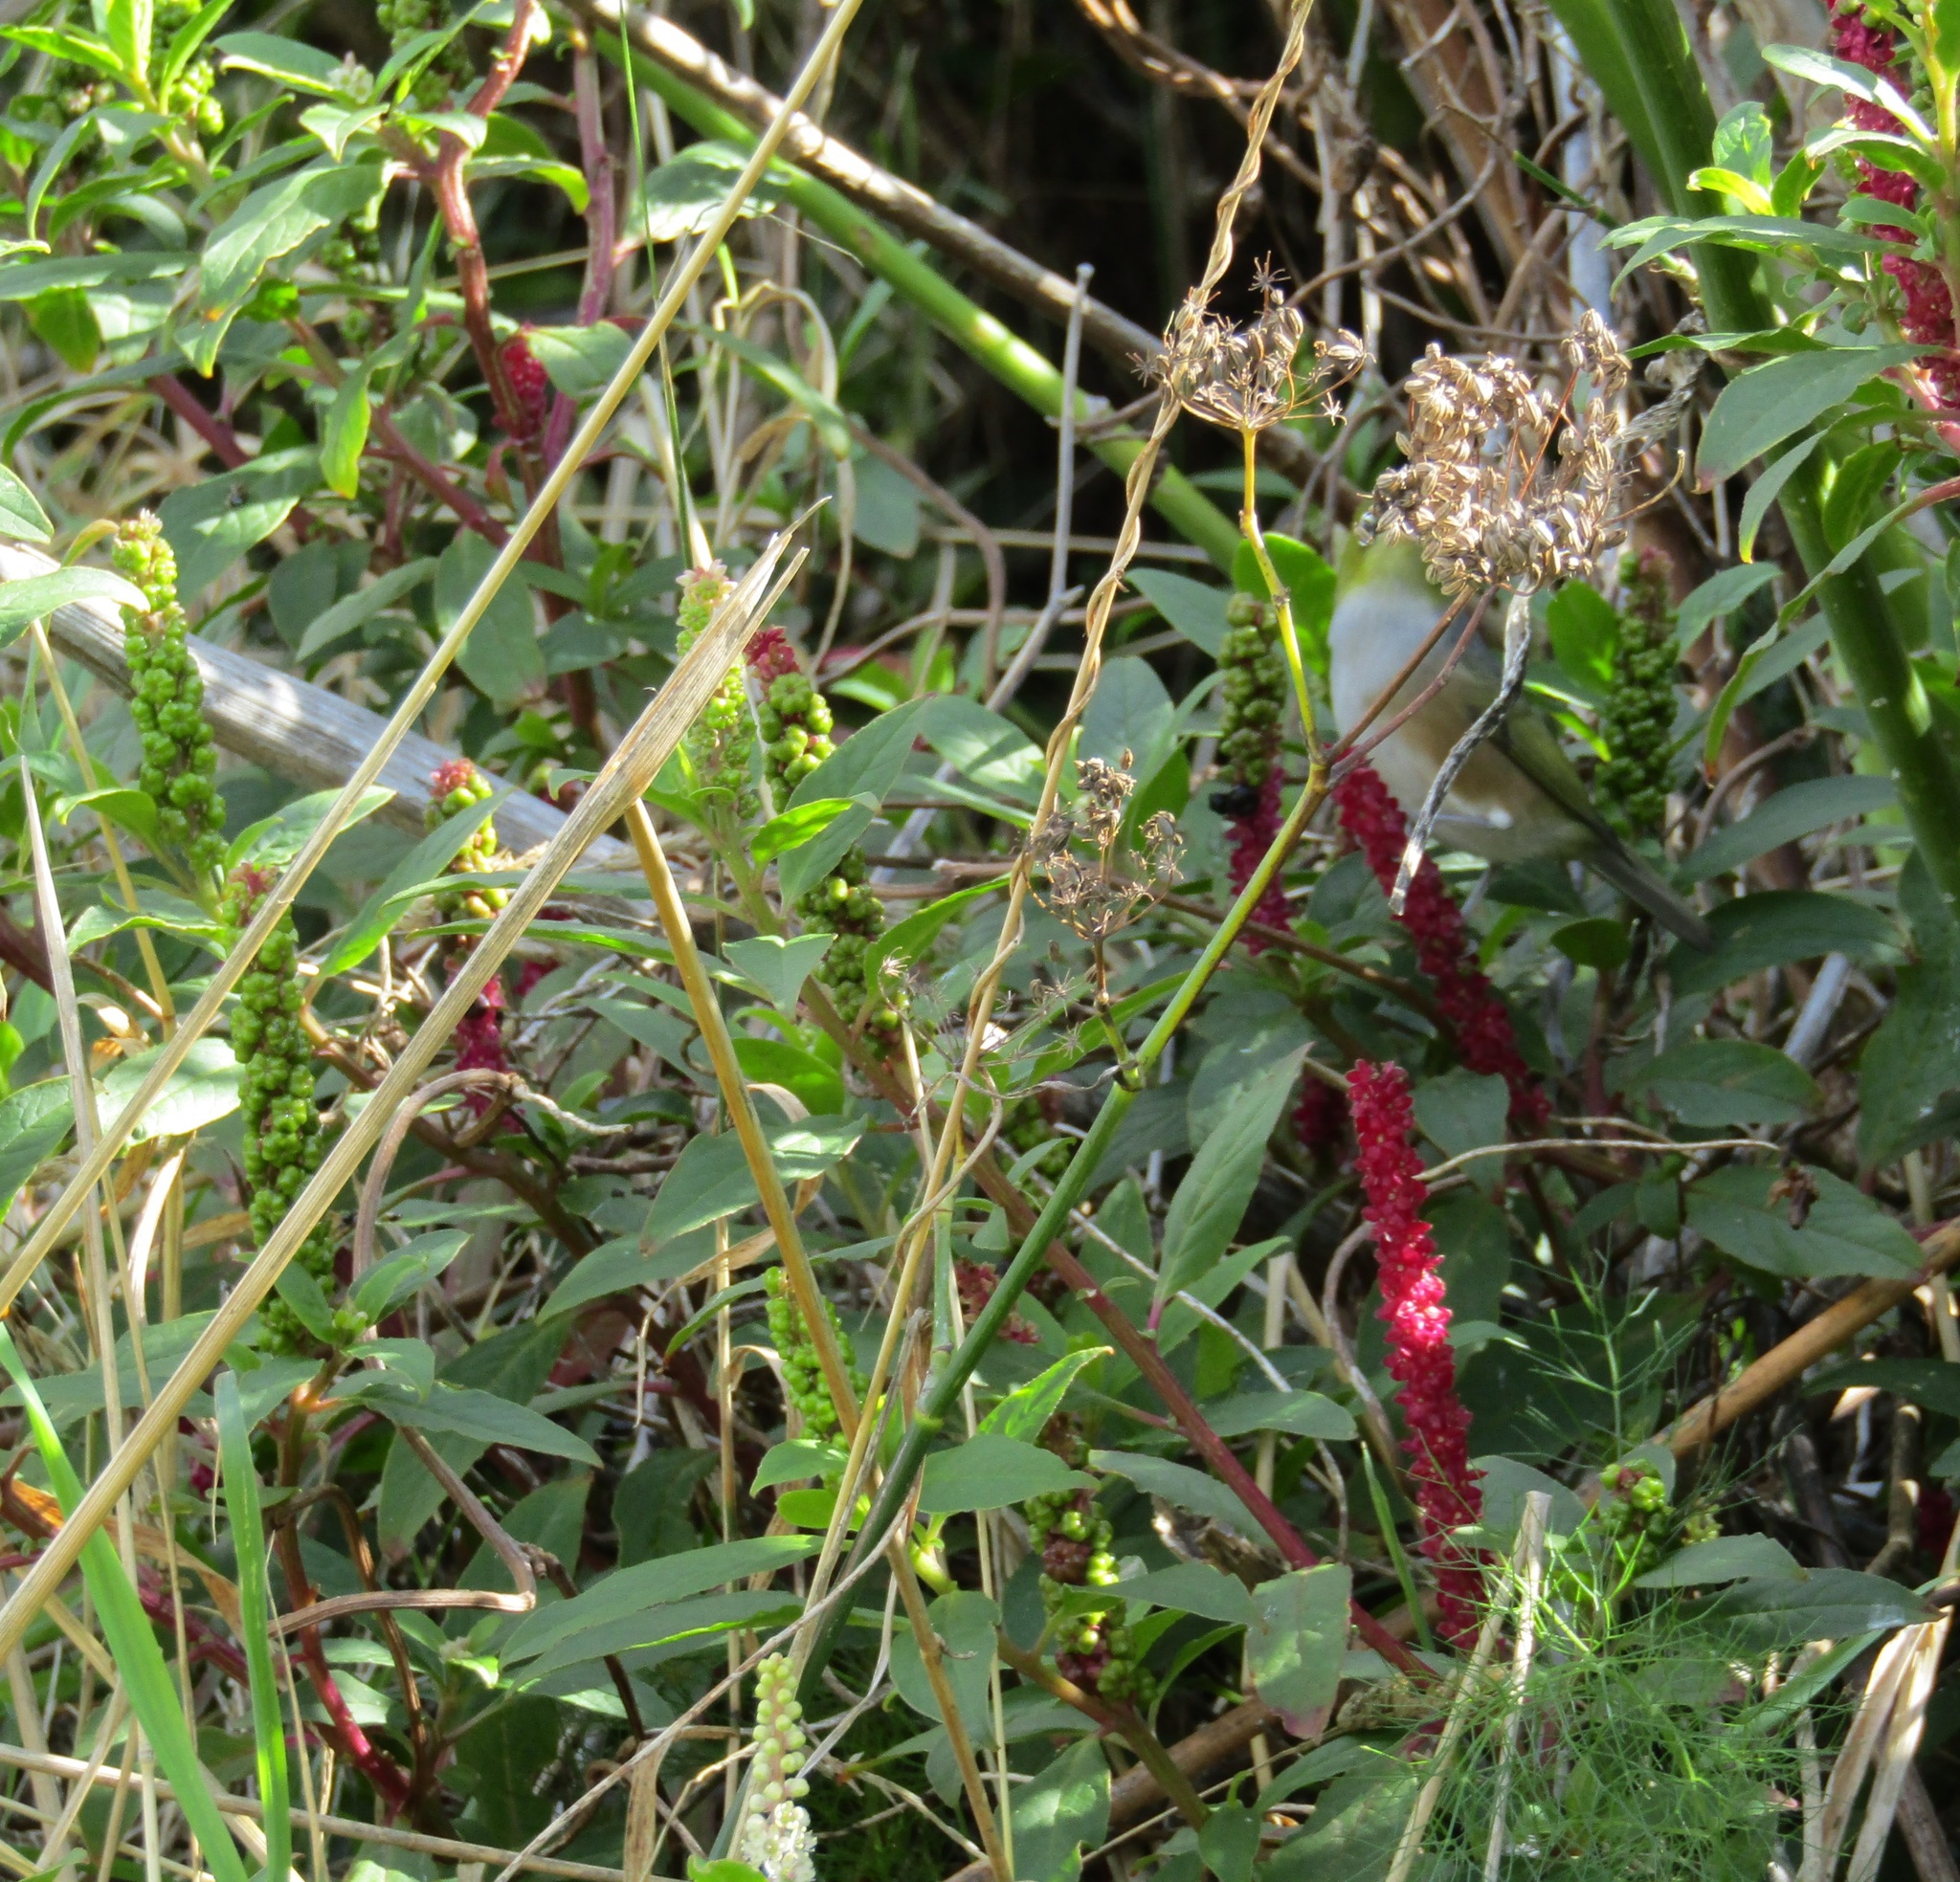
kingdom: Animalia
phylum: Chordata
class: Aves
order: Passeriformes
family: Zosteropidae
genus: Zosterops
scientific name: Zosterops lateralis
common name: Silvereye
